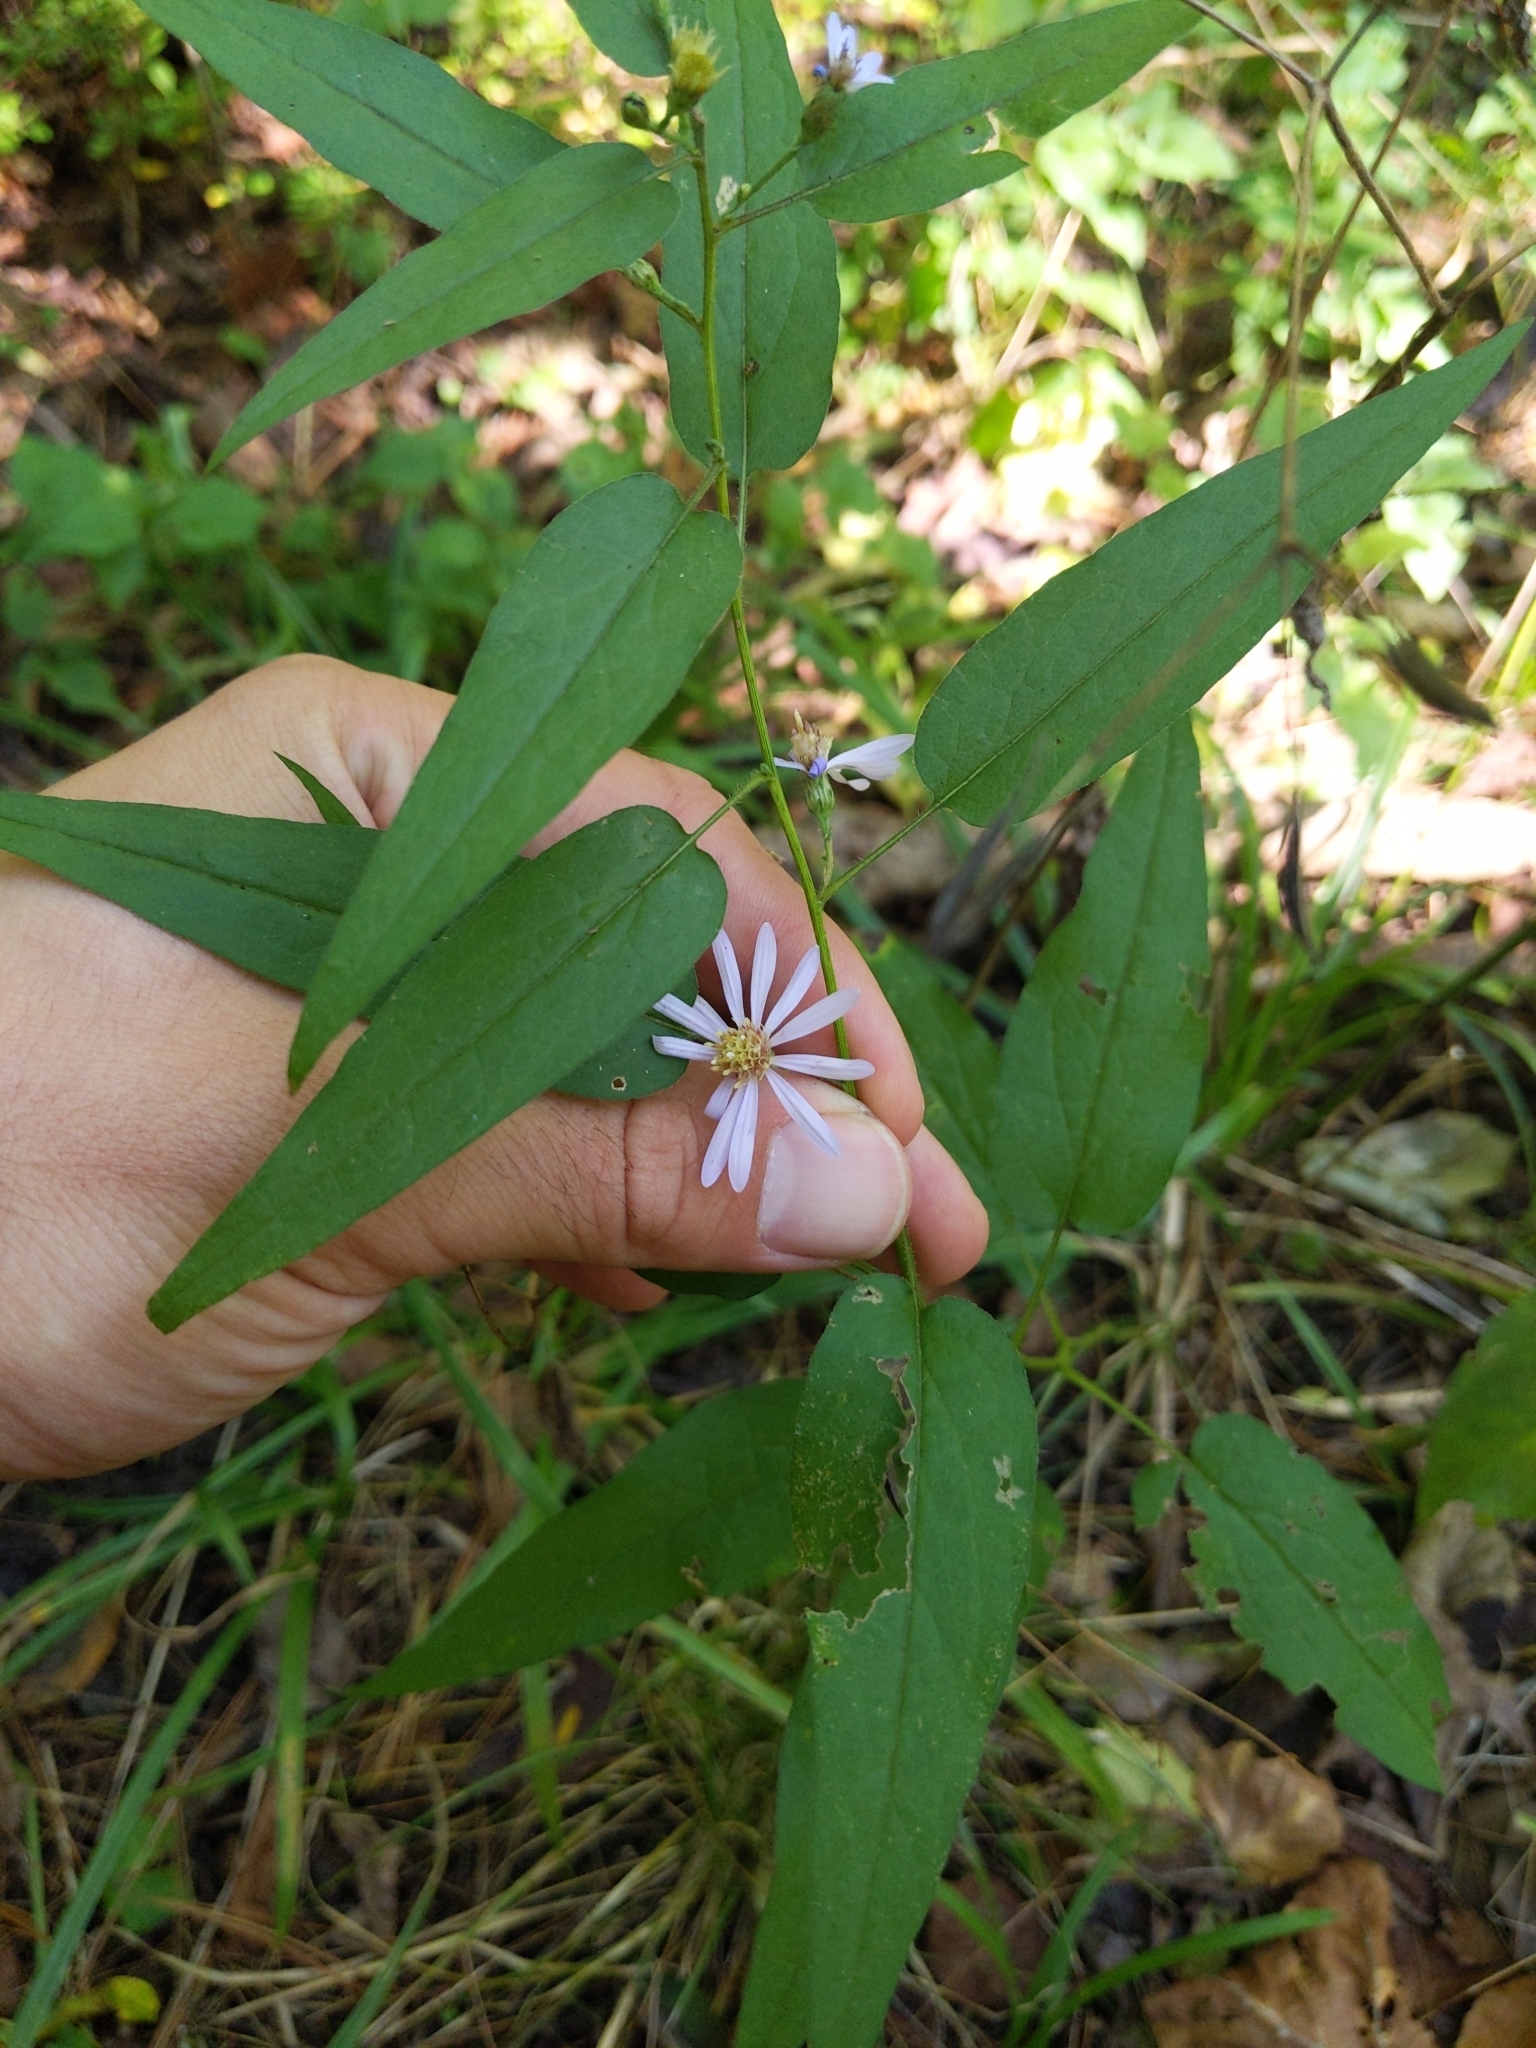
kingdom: Plantae
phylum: Tracheophyta
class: Magnoliopsida
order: Asterales
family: Asteraceae
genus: Symphyotrichum
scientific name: Symphyotrichum shortii
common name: Short's aster
